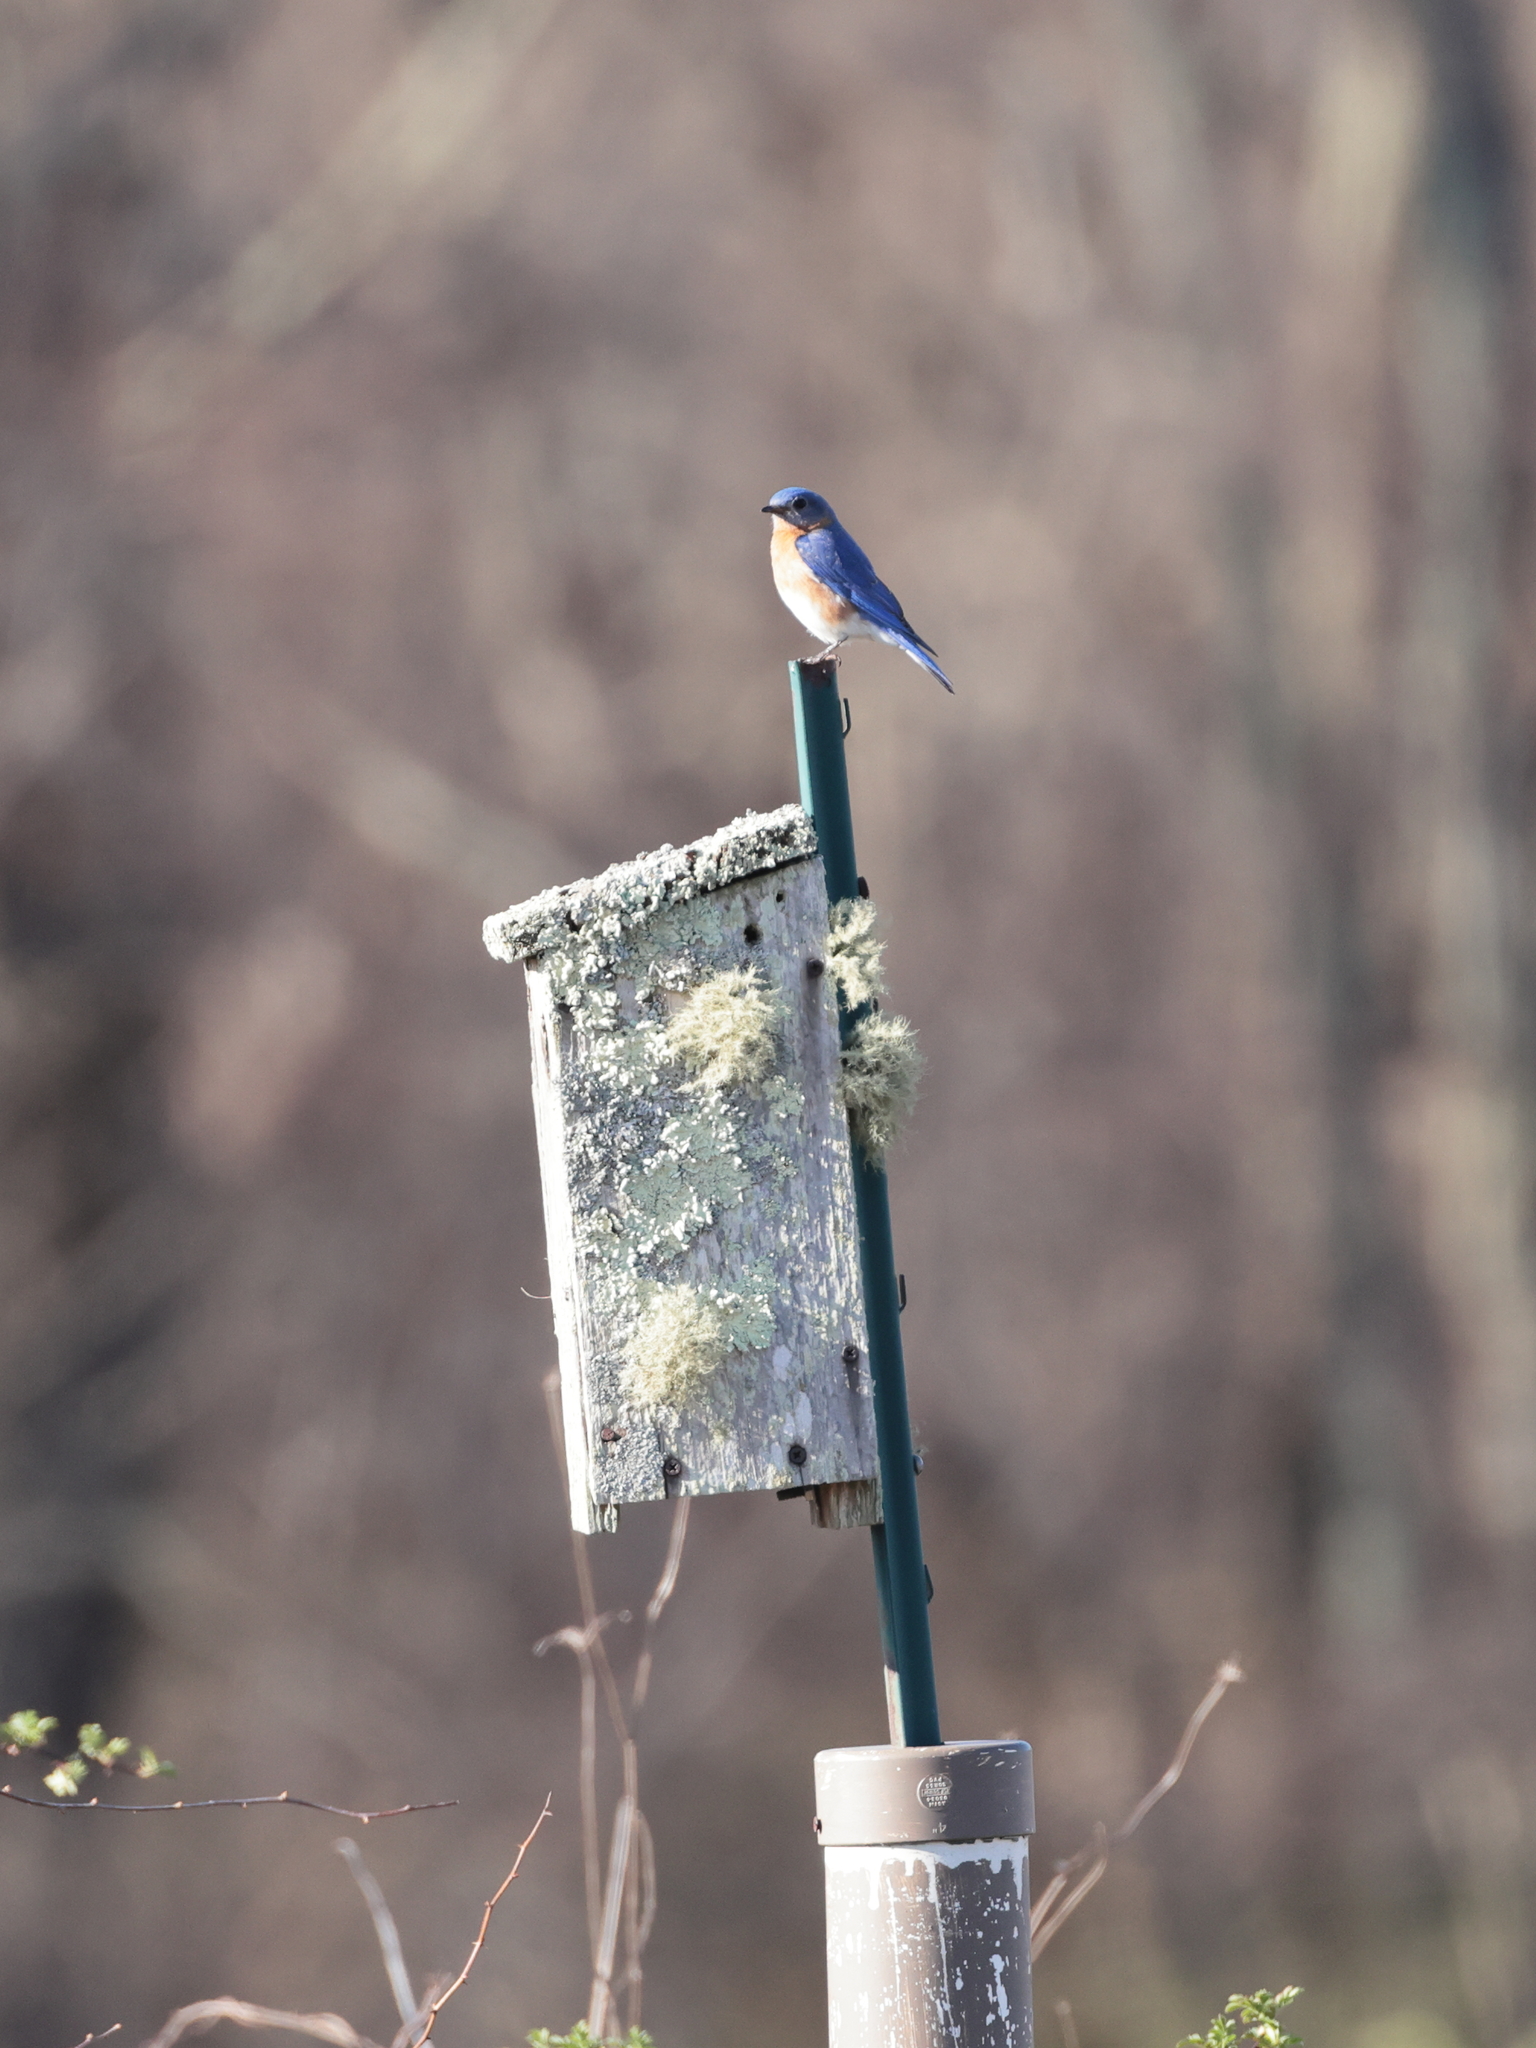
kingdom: Animalia
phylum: Chordata
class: Aves
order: Passeriformes
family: Turdidae
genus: Sialia
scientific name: Sialia sialis
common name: Eastern bluebird
